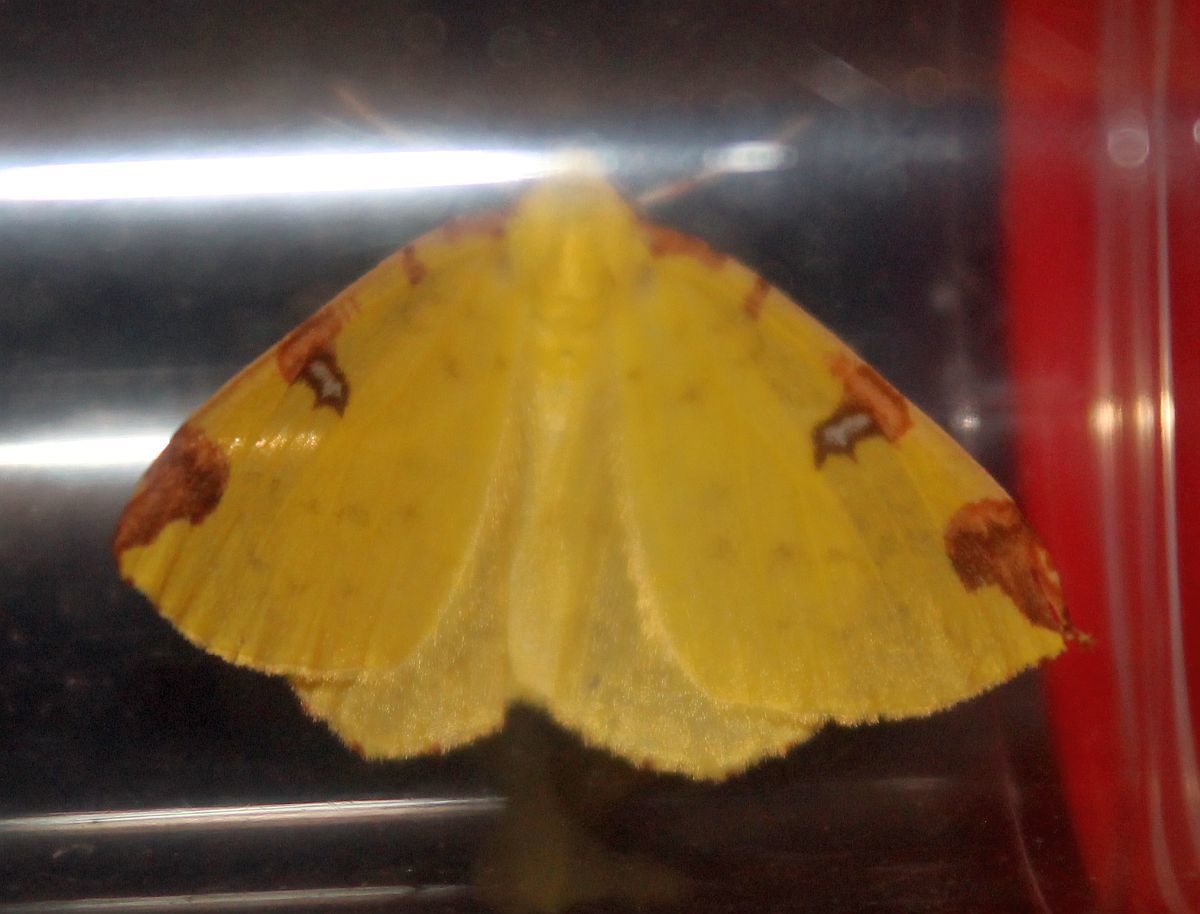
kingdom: Animalia
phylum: Arthropoda
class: Insecta
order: Lepidoptera
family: Geometridae
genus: Opisthograptis
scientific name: Opisthograptis luteolata
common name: Brimstone moth
